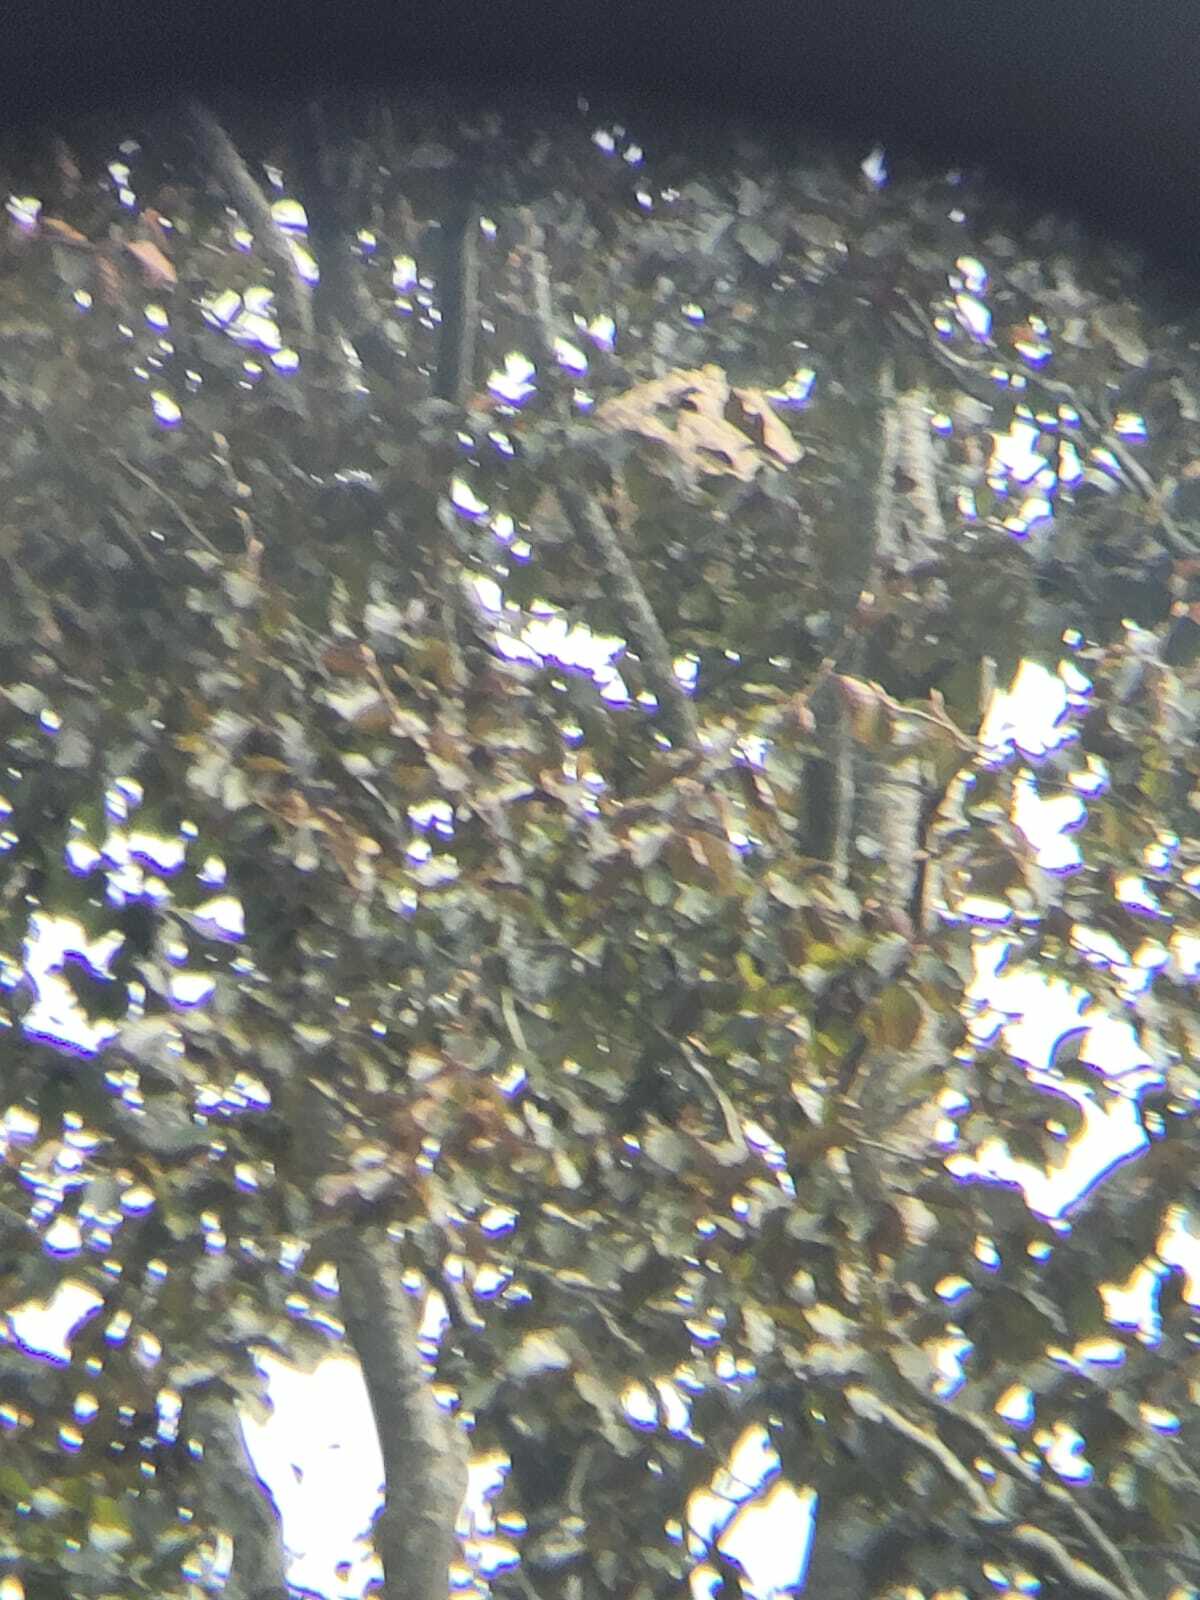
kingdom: Animalia
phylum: Arthropoda
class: Insecta
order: Hymenoptera
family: Vespidae
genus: Vespa
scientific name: Vespa velutina
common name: Asian hornet
